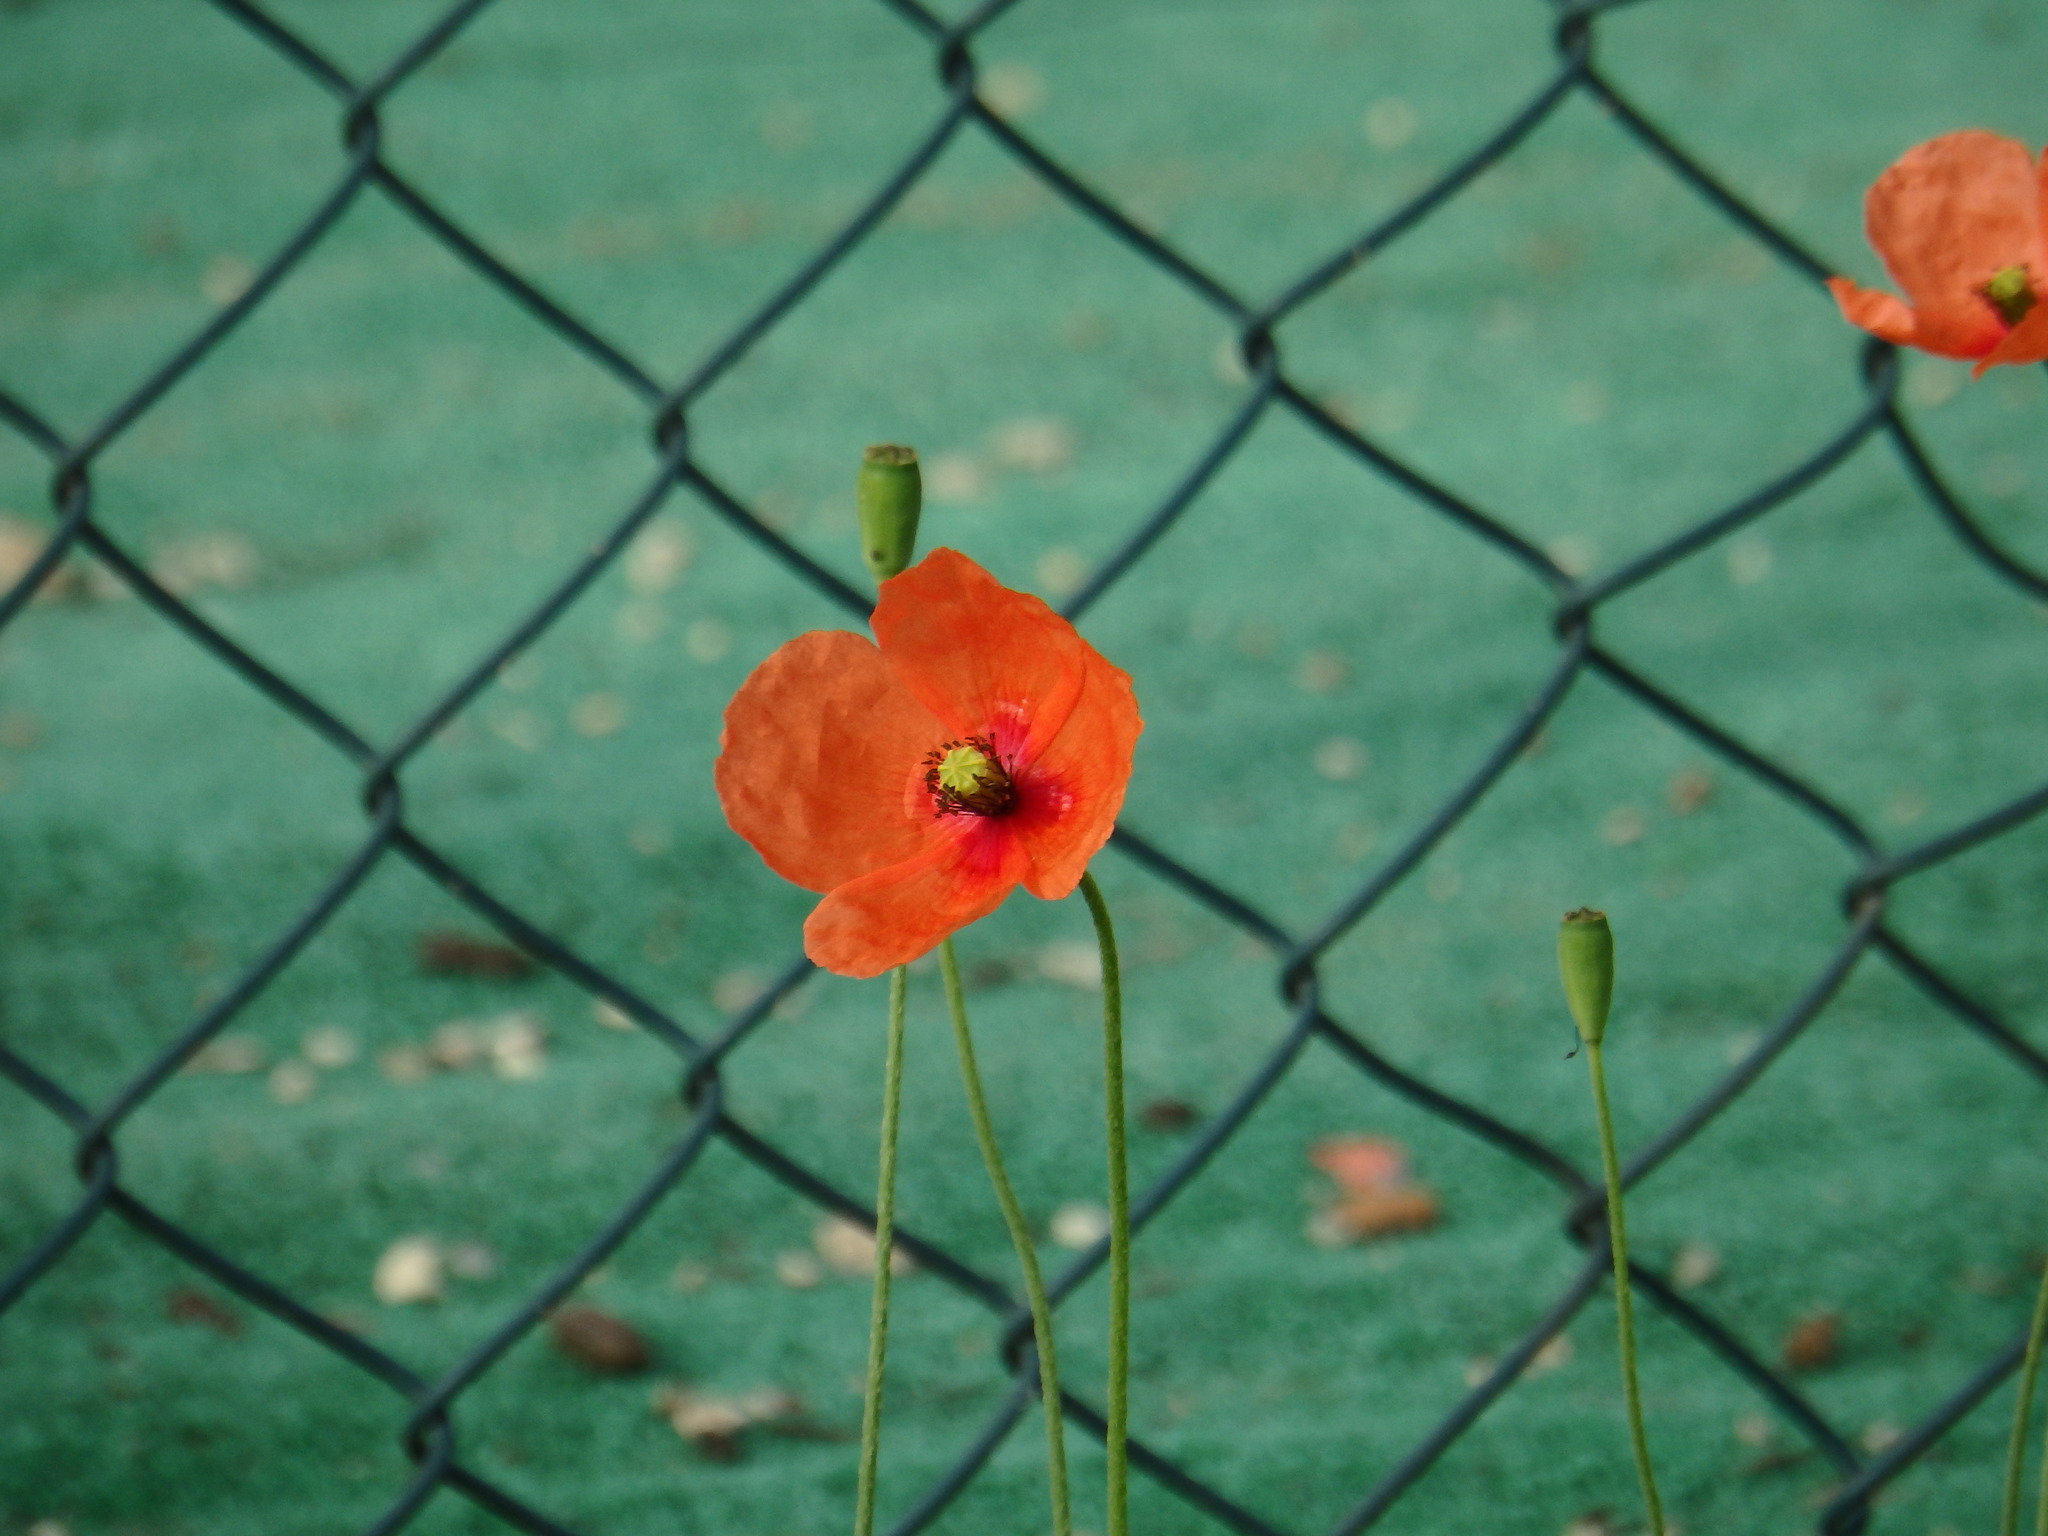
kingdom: Plantae
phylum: Tracheophyta
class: Magnoliopsida
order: Ranunculales
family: Papaveraceae
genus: Papaver
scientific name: Papaver dubium
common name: Long-headed poppy
